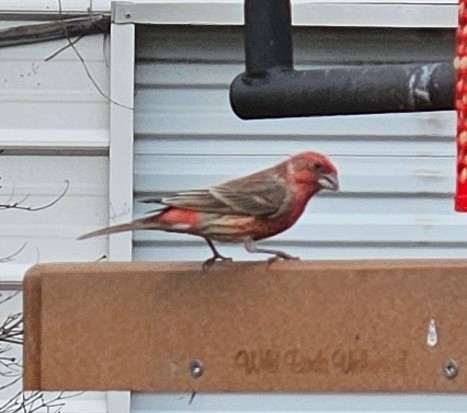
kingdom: Animalia
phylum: Chordata
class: Aves
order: Passeriformes
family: Fringillidae
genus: Haemorhous
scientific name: Haemorhous mexicanus
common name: House finch
